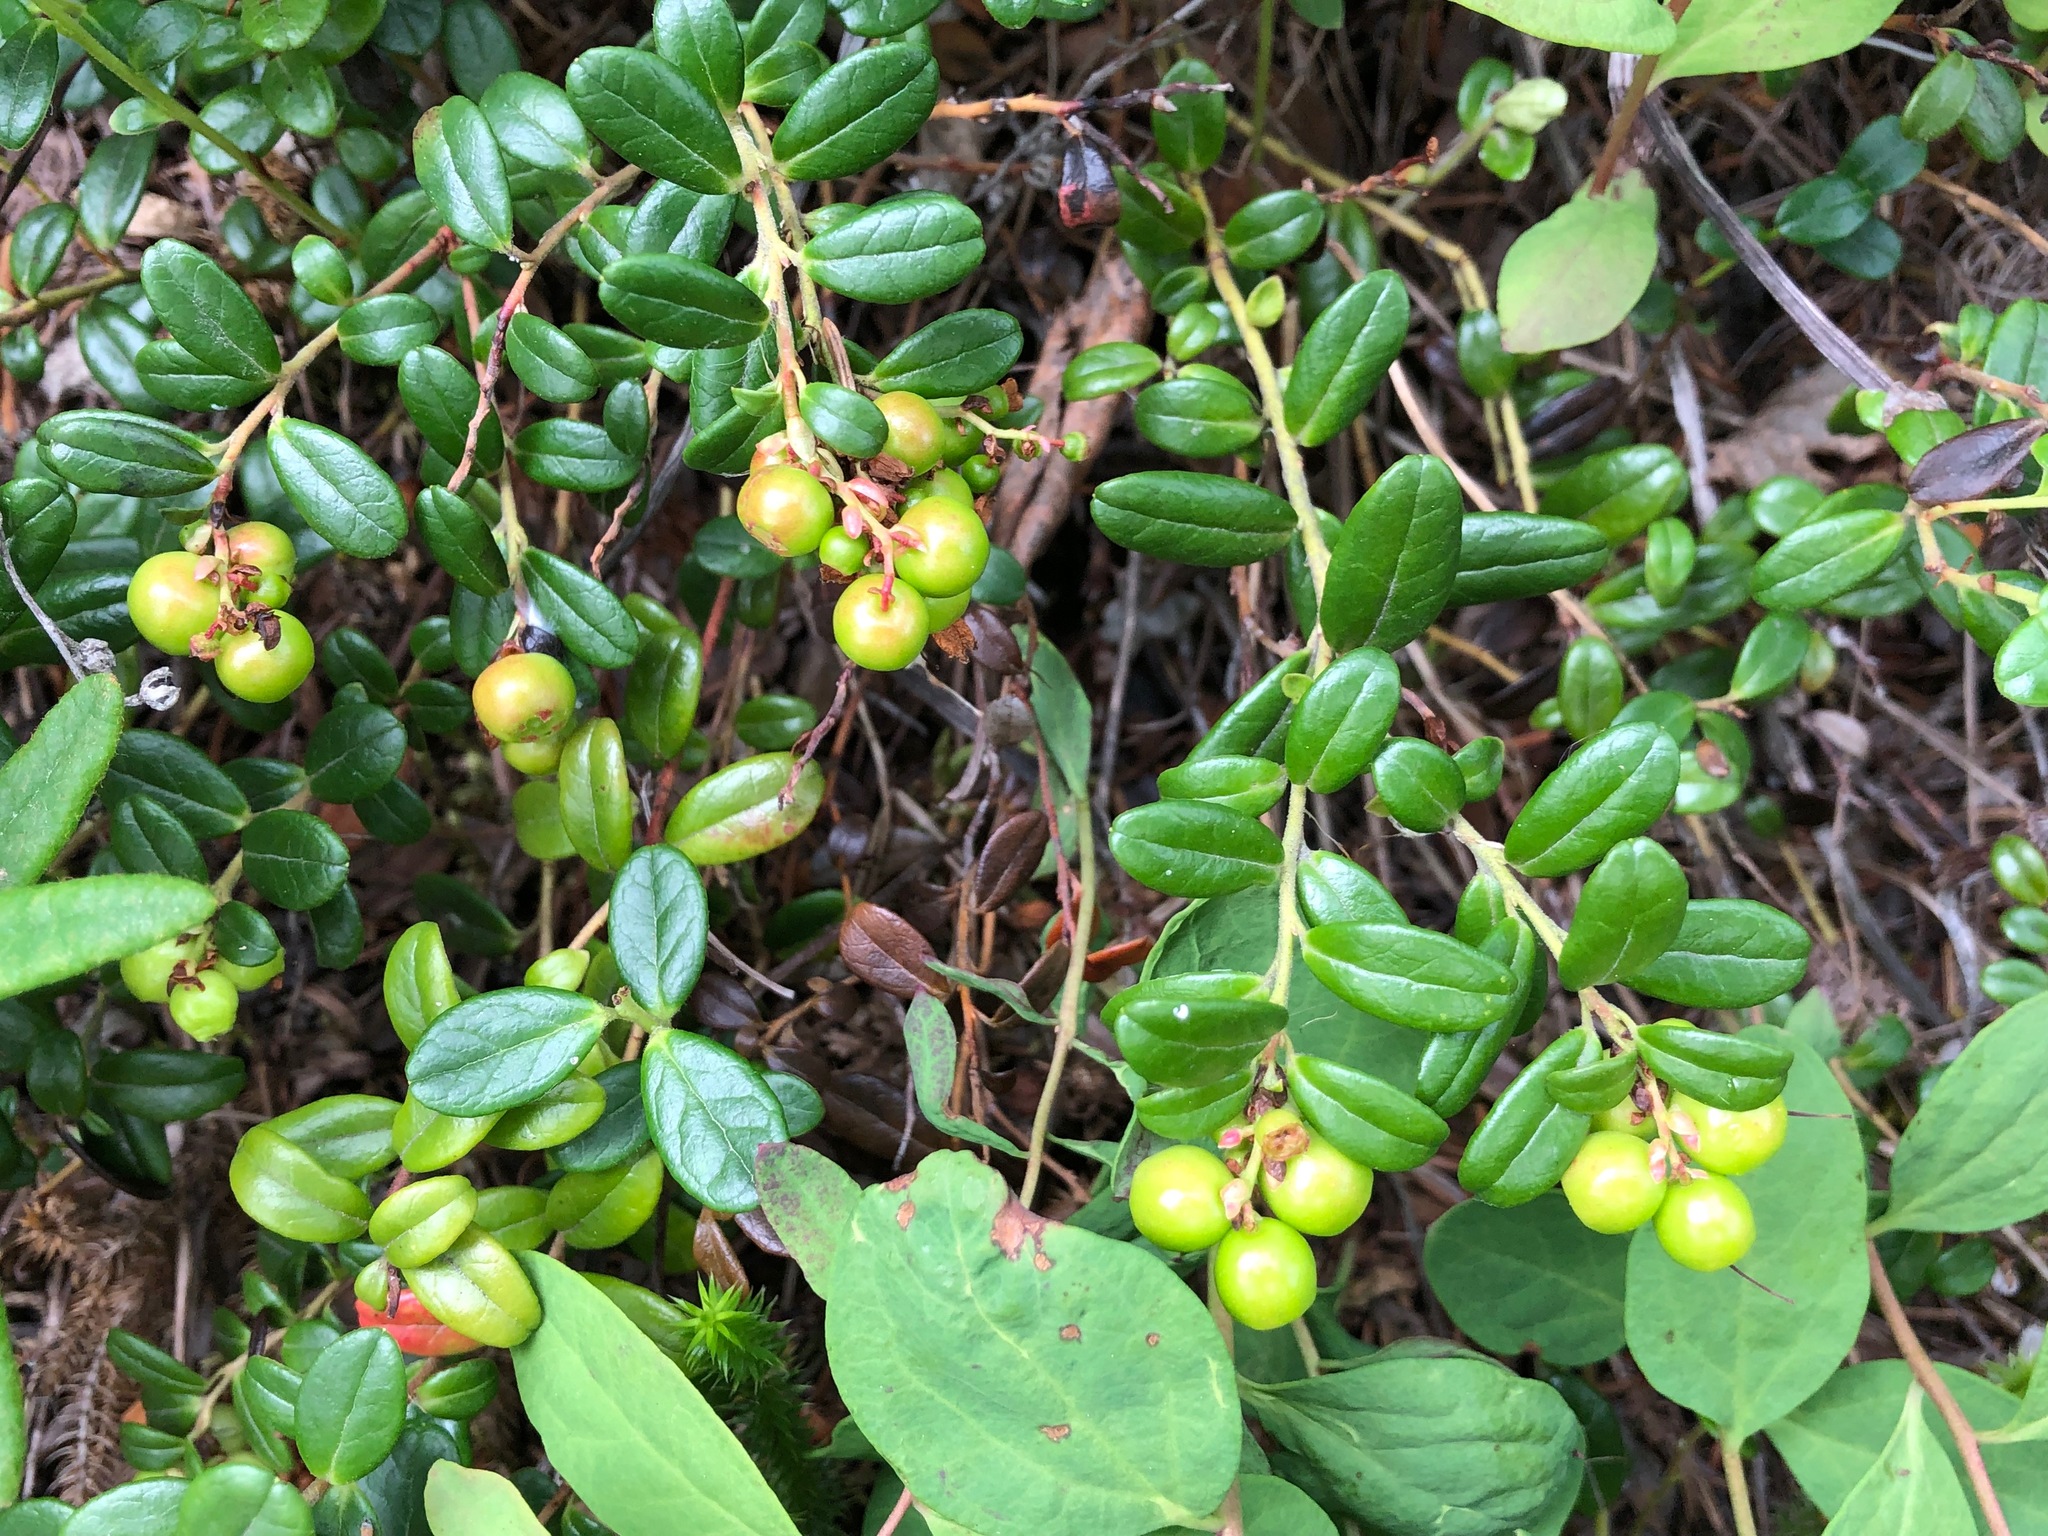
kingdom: Plantae
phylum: Tracheophyta
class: Magnoliopsida
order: Ericales
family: Ericaceae
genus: Vaccinium
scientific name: Vaccinium vitis-idaea
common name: Cowberry
